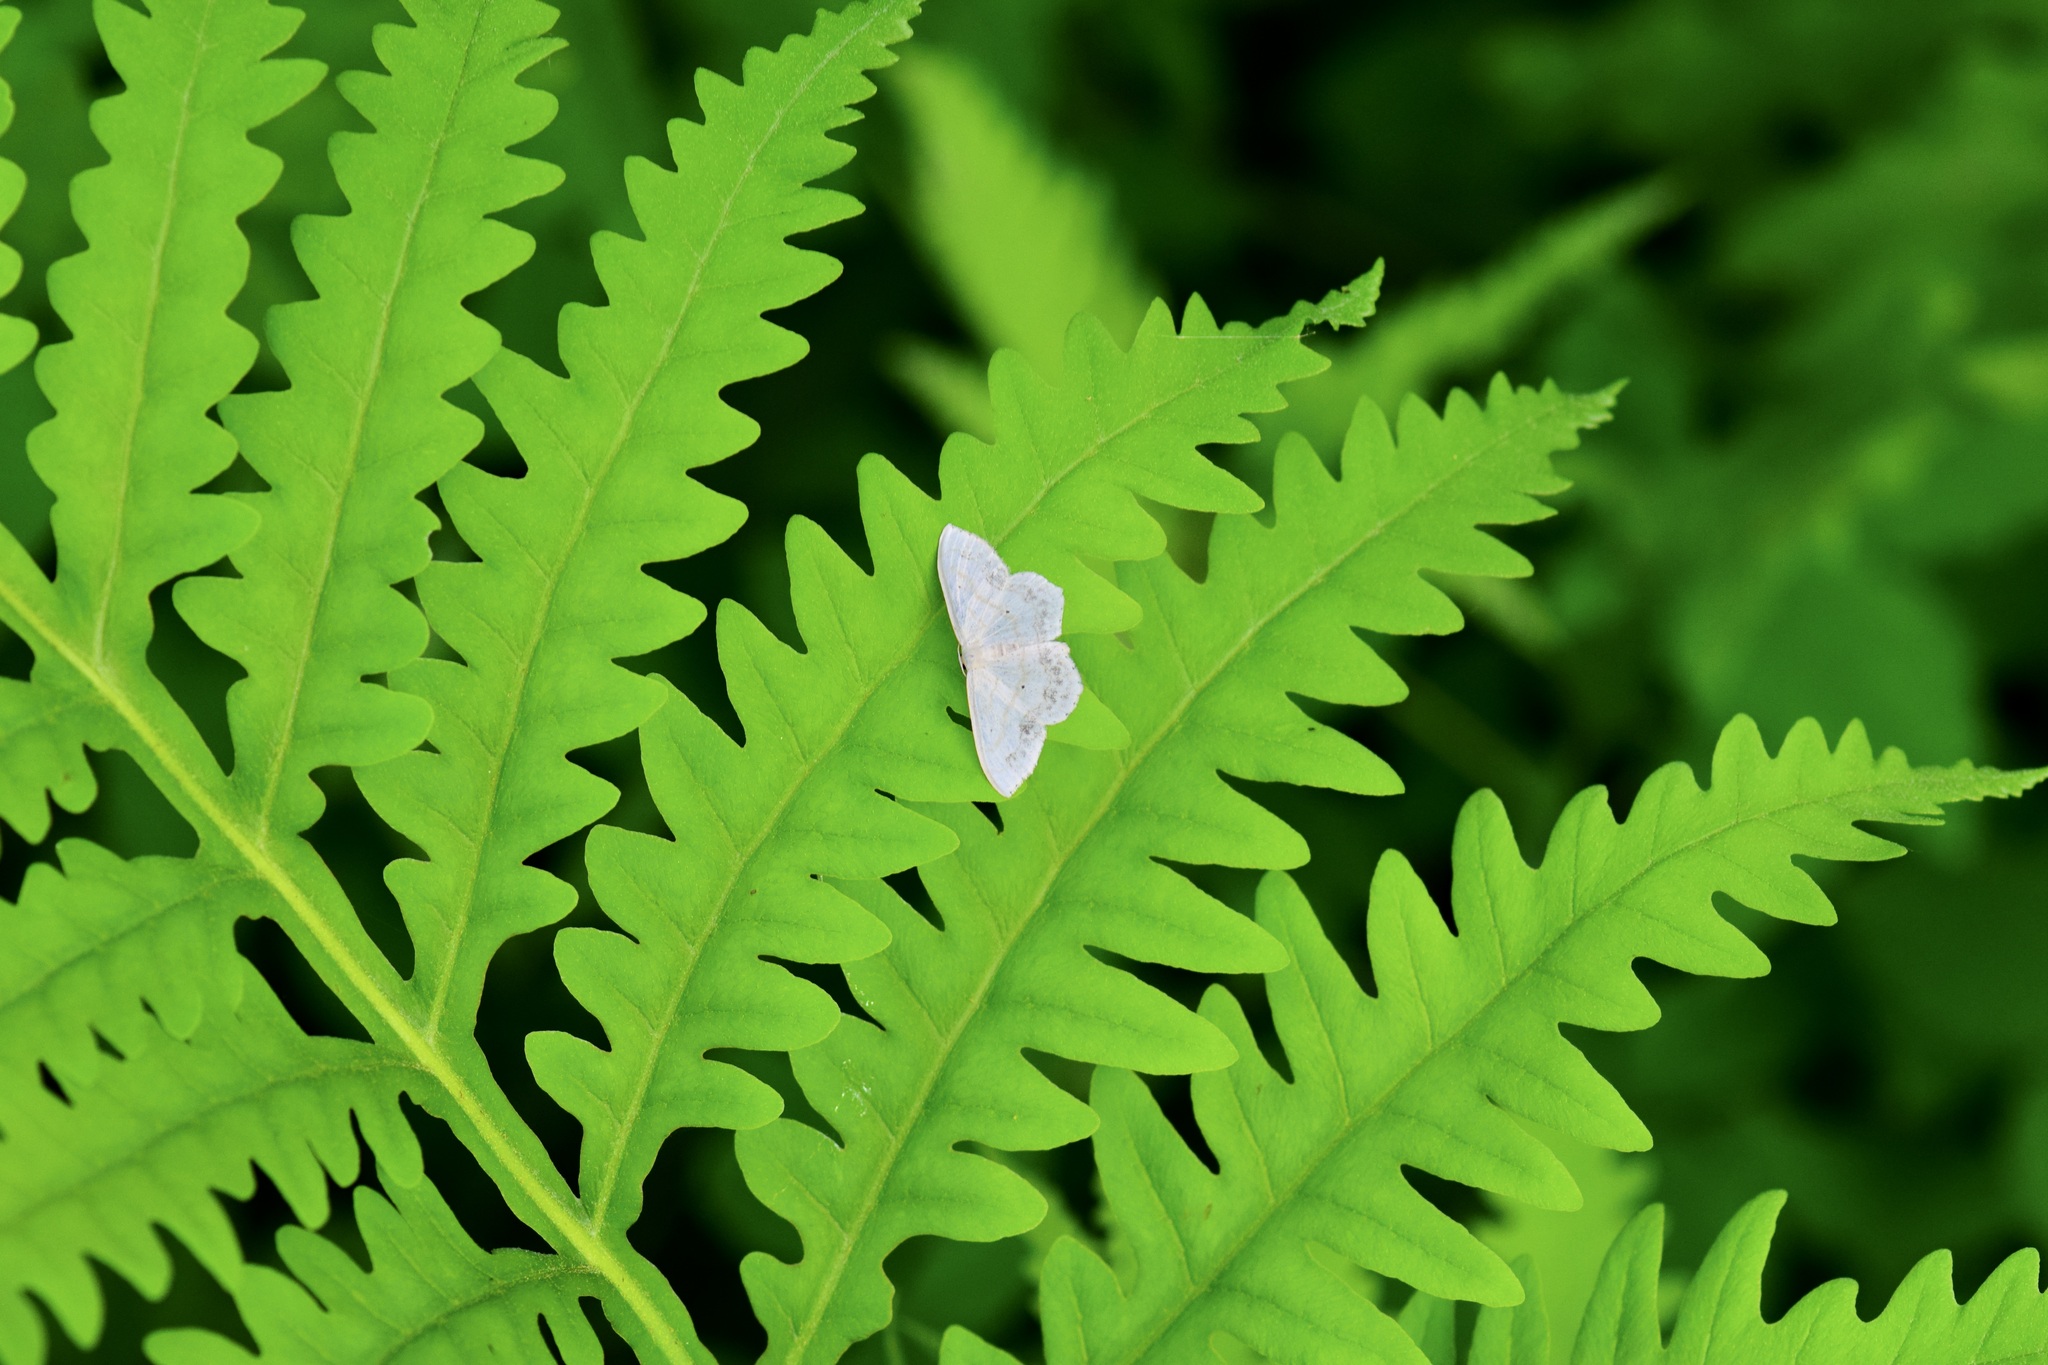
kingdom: Animalia
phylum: Arthropoda
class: Insecta
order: Lepidoptera
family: Geometridae
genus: Scopula
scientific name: Scopula limboundata
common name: Large lace border
